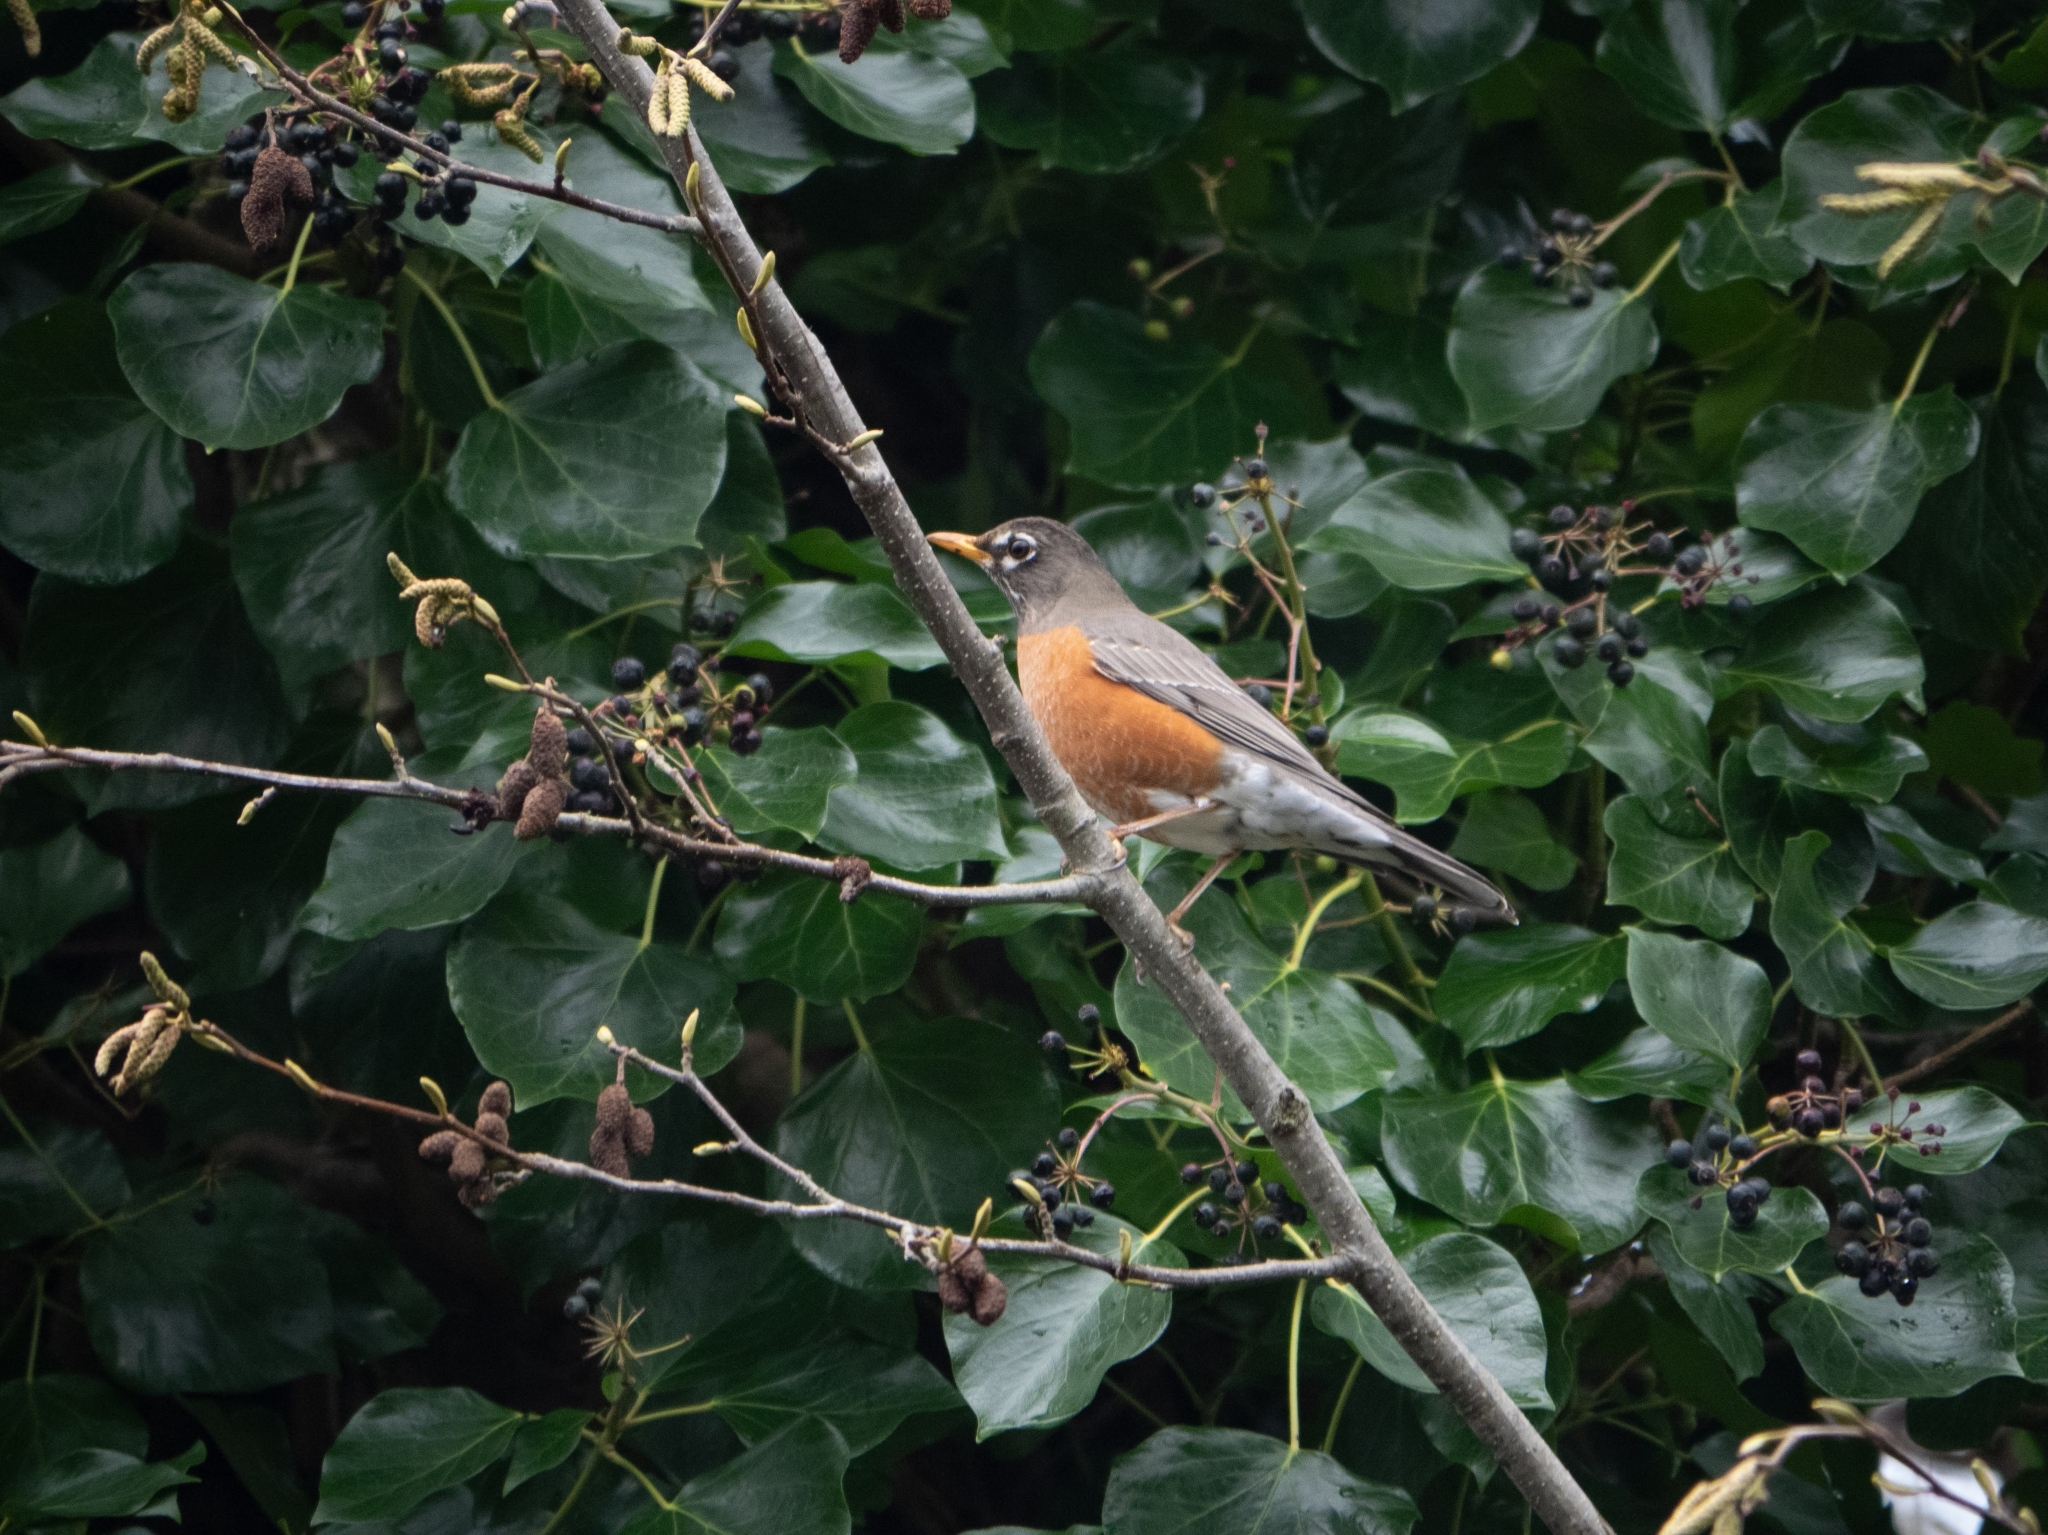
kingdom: Animalia
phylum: Chordata
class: Aves
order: Passeriformes
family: Turdidae
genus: Turdus
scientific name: Turdus migratorius
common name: American robin
